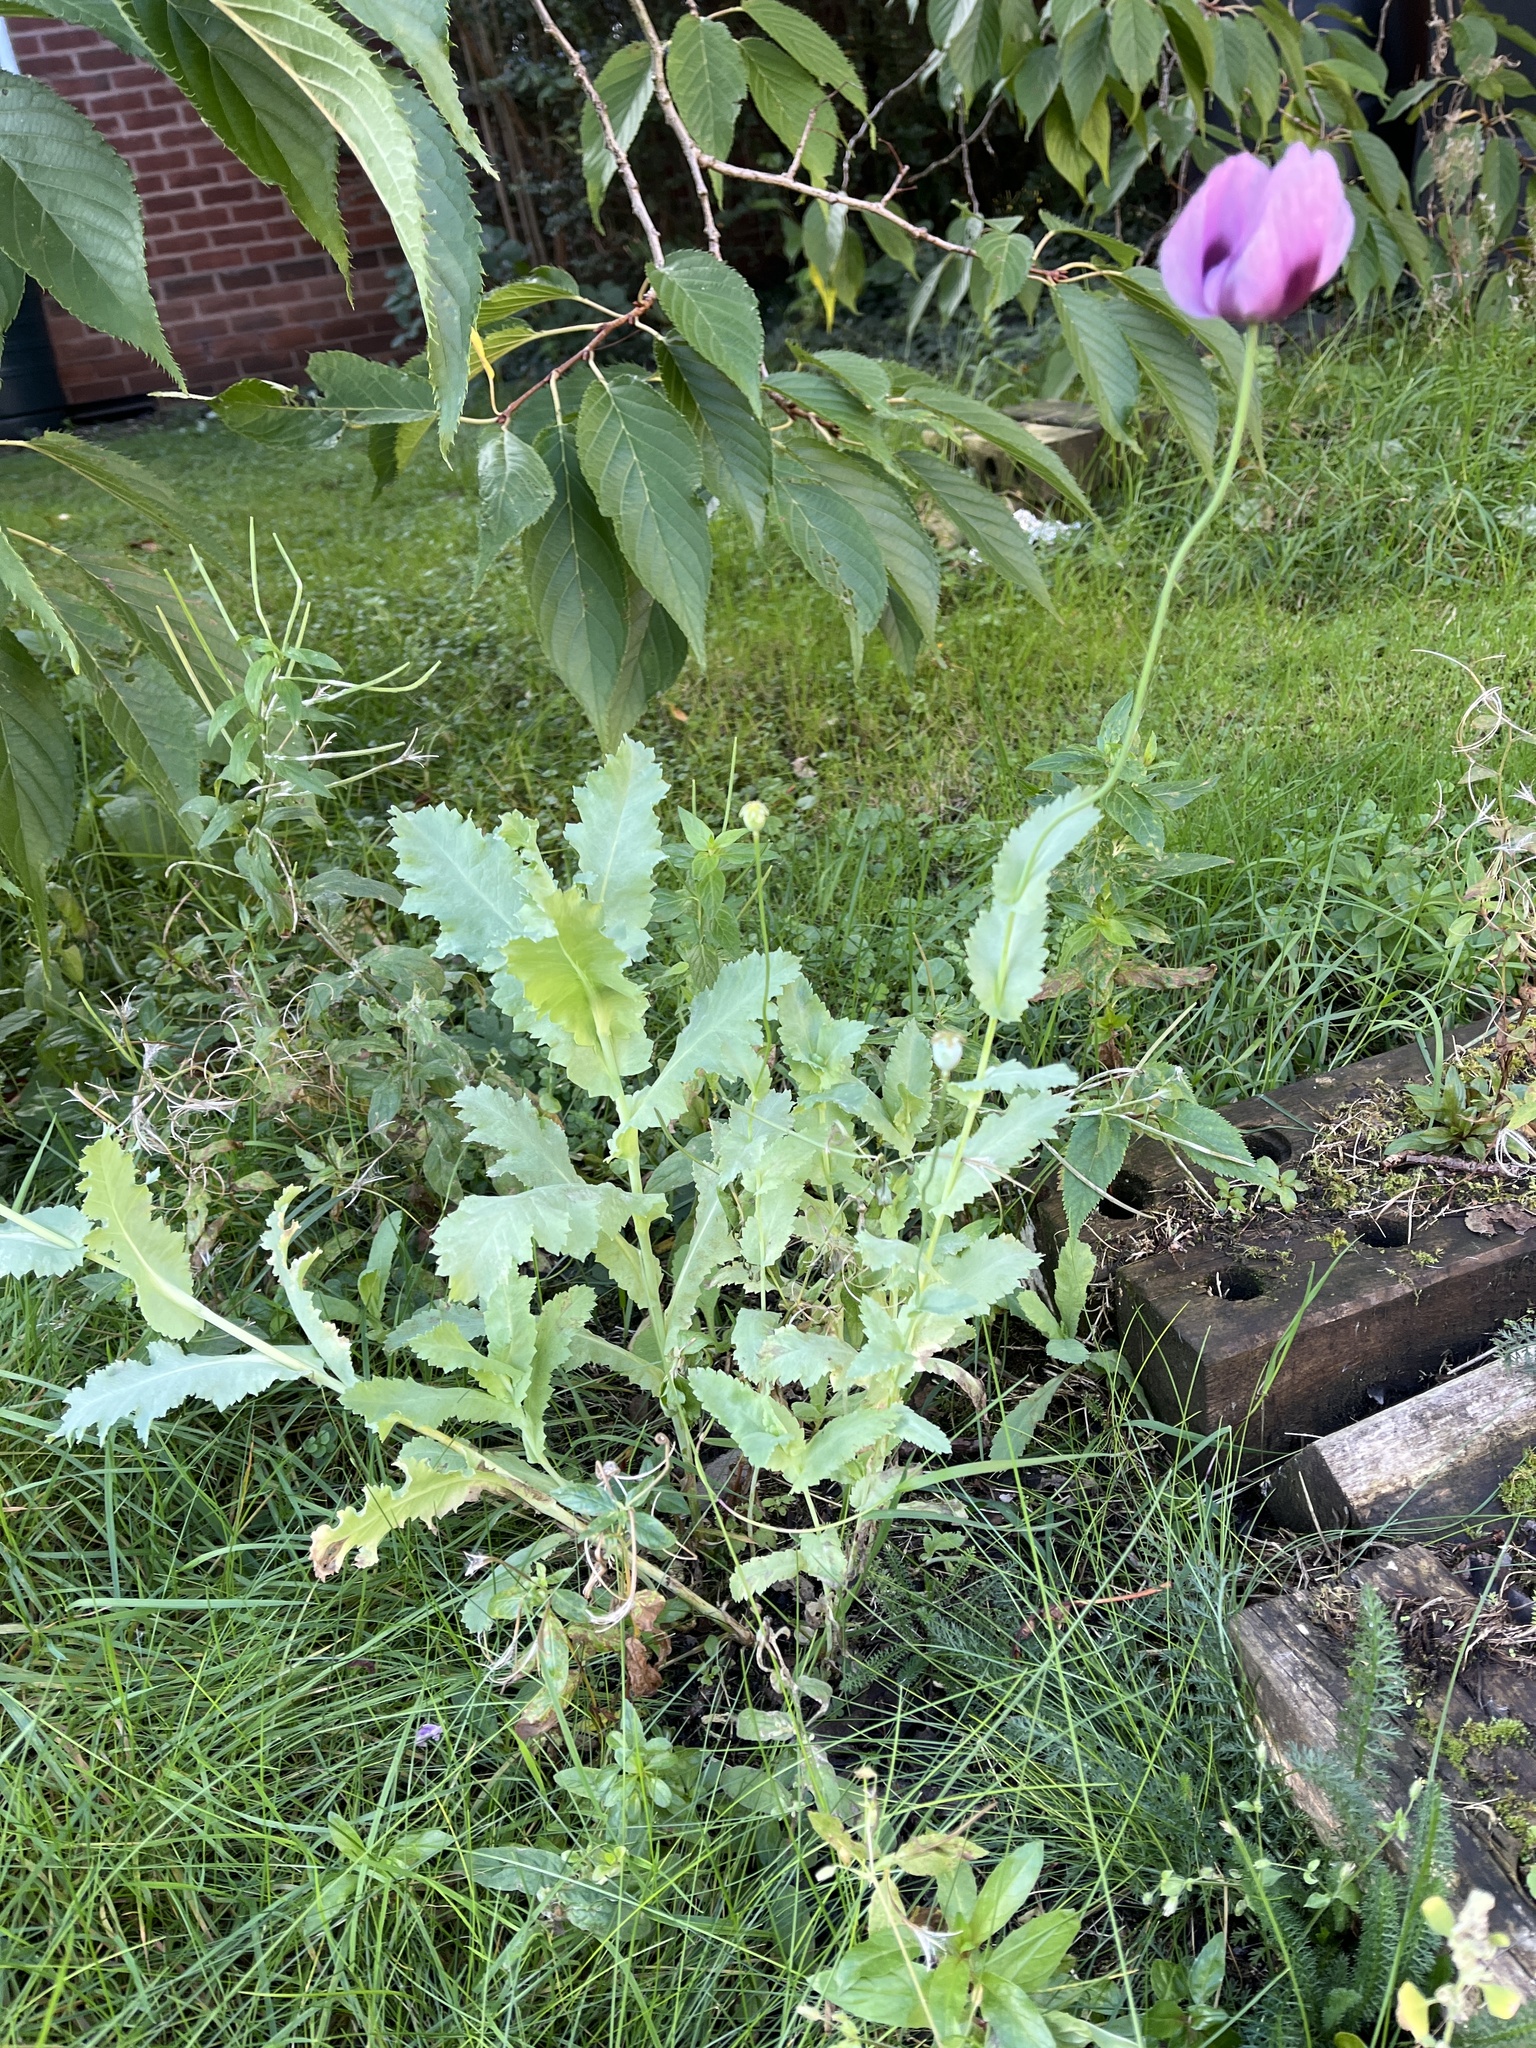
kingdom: Plantae
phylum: Tracheophyta
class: Magnoliopsida
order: Ranunculales
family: Papaveraceae
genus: Papaver
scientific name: Papaver somniferum
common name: Opium poppy
